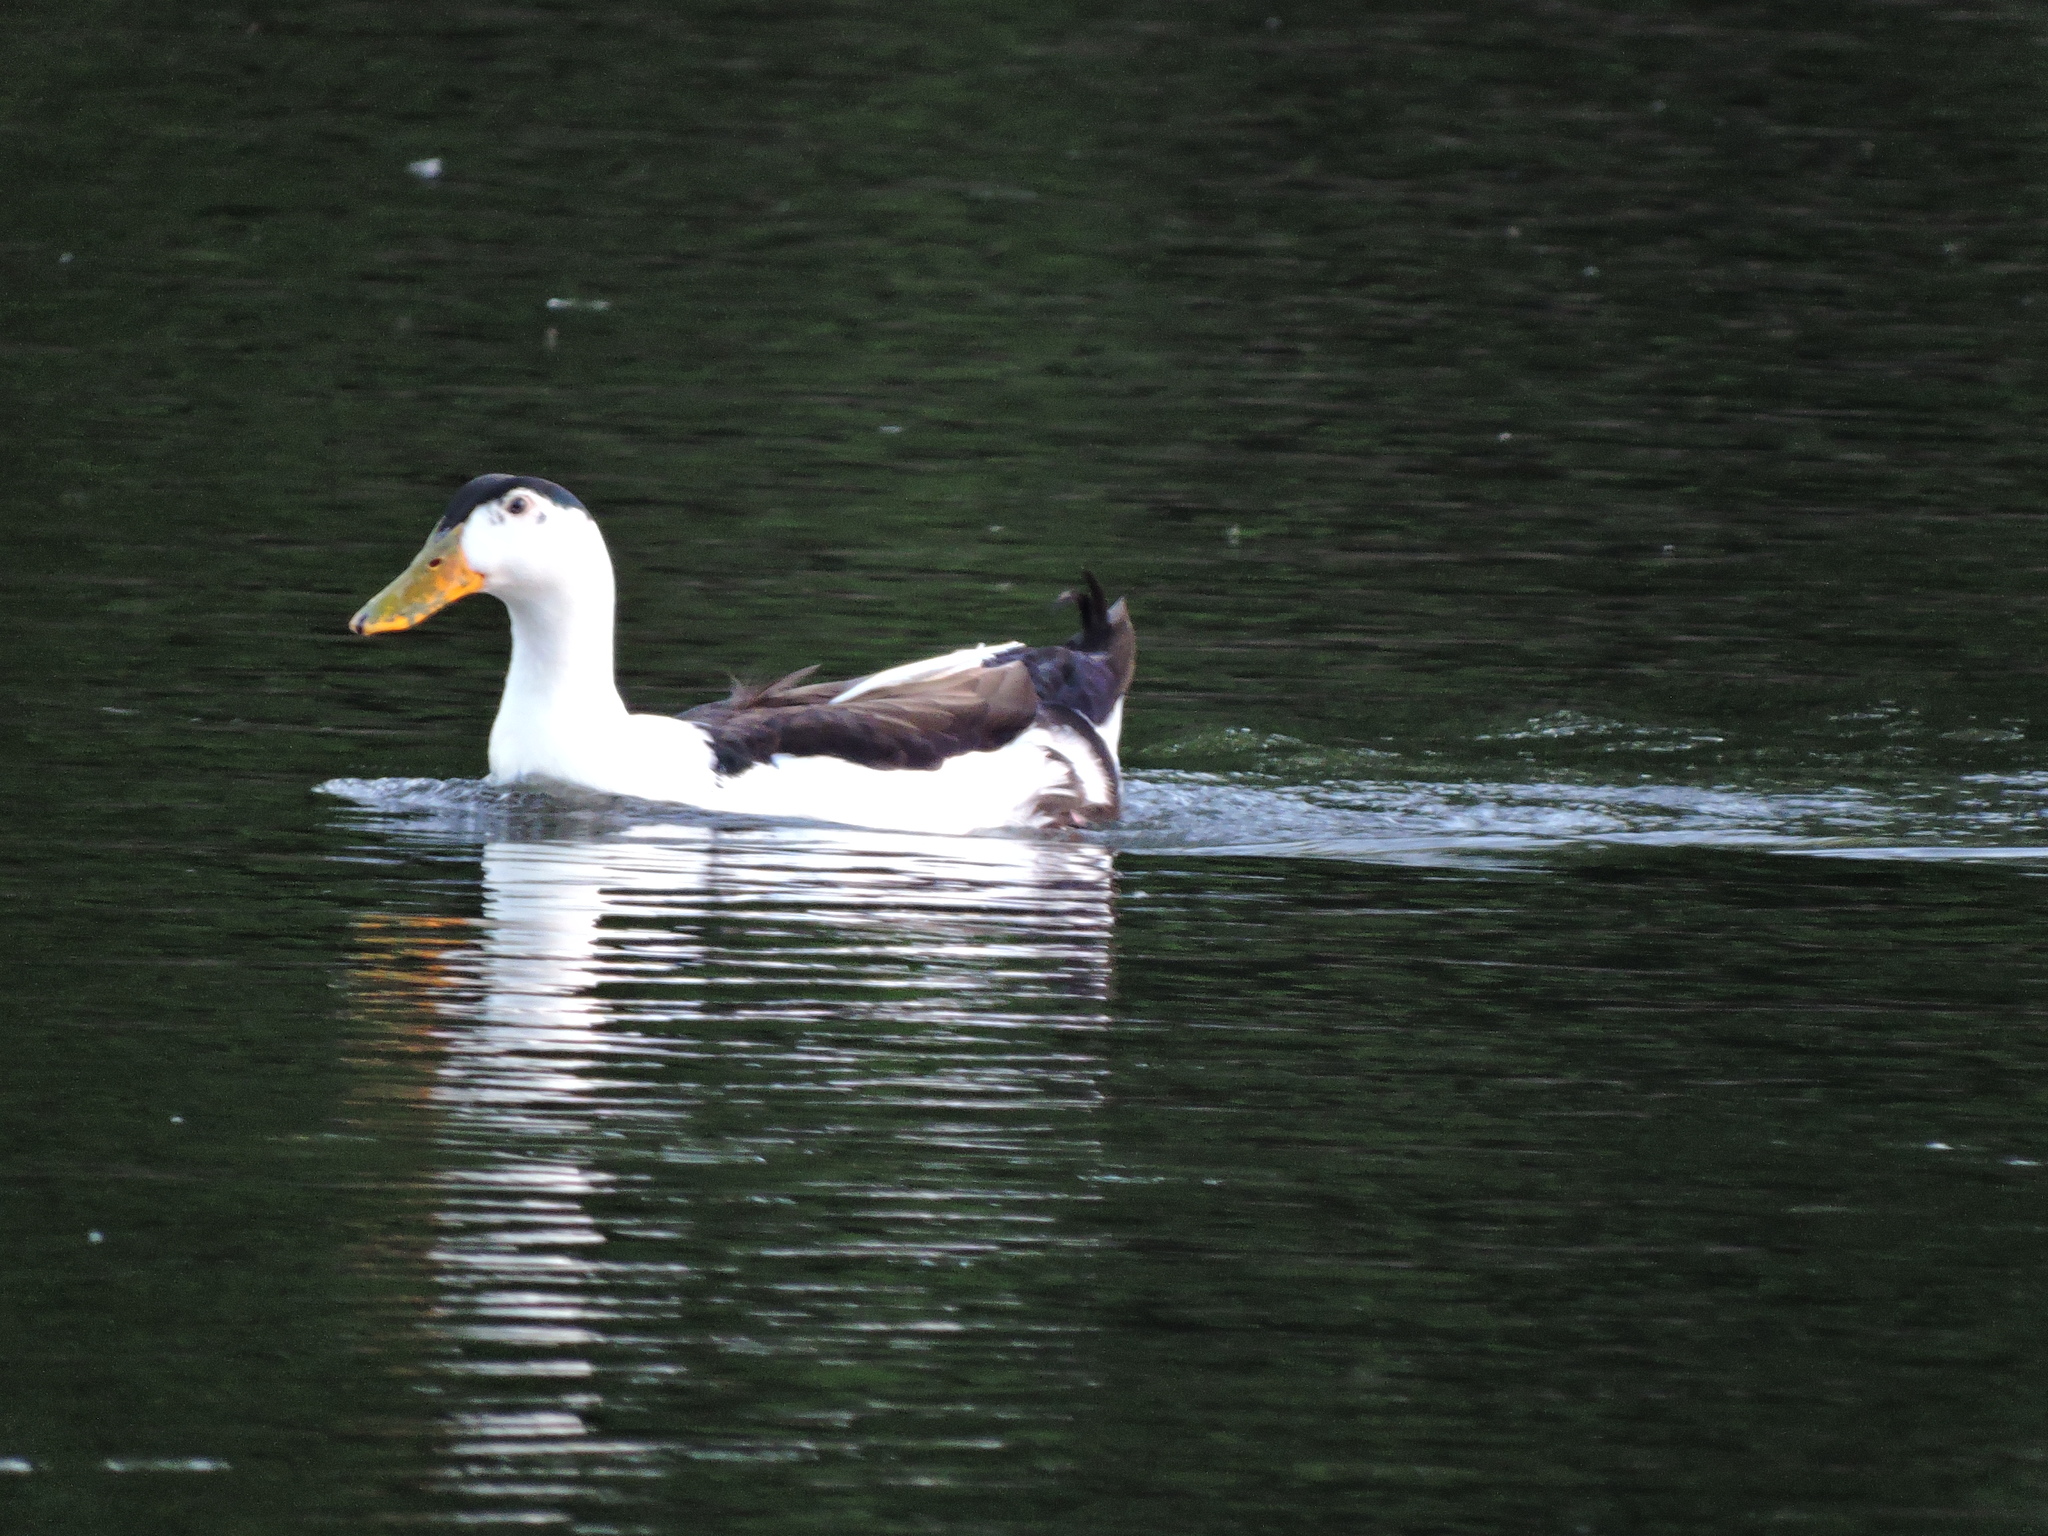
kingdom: Animalia
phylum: Chordata
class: Aves
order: Anseriformes
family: Anatidae
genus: Anas
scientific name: Anas platyrhynchos
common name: Mallard
